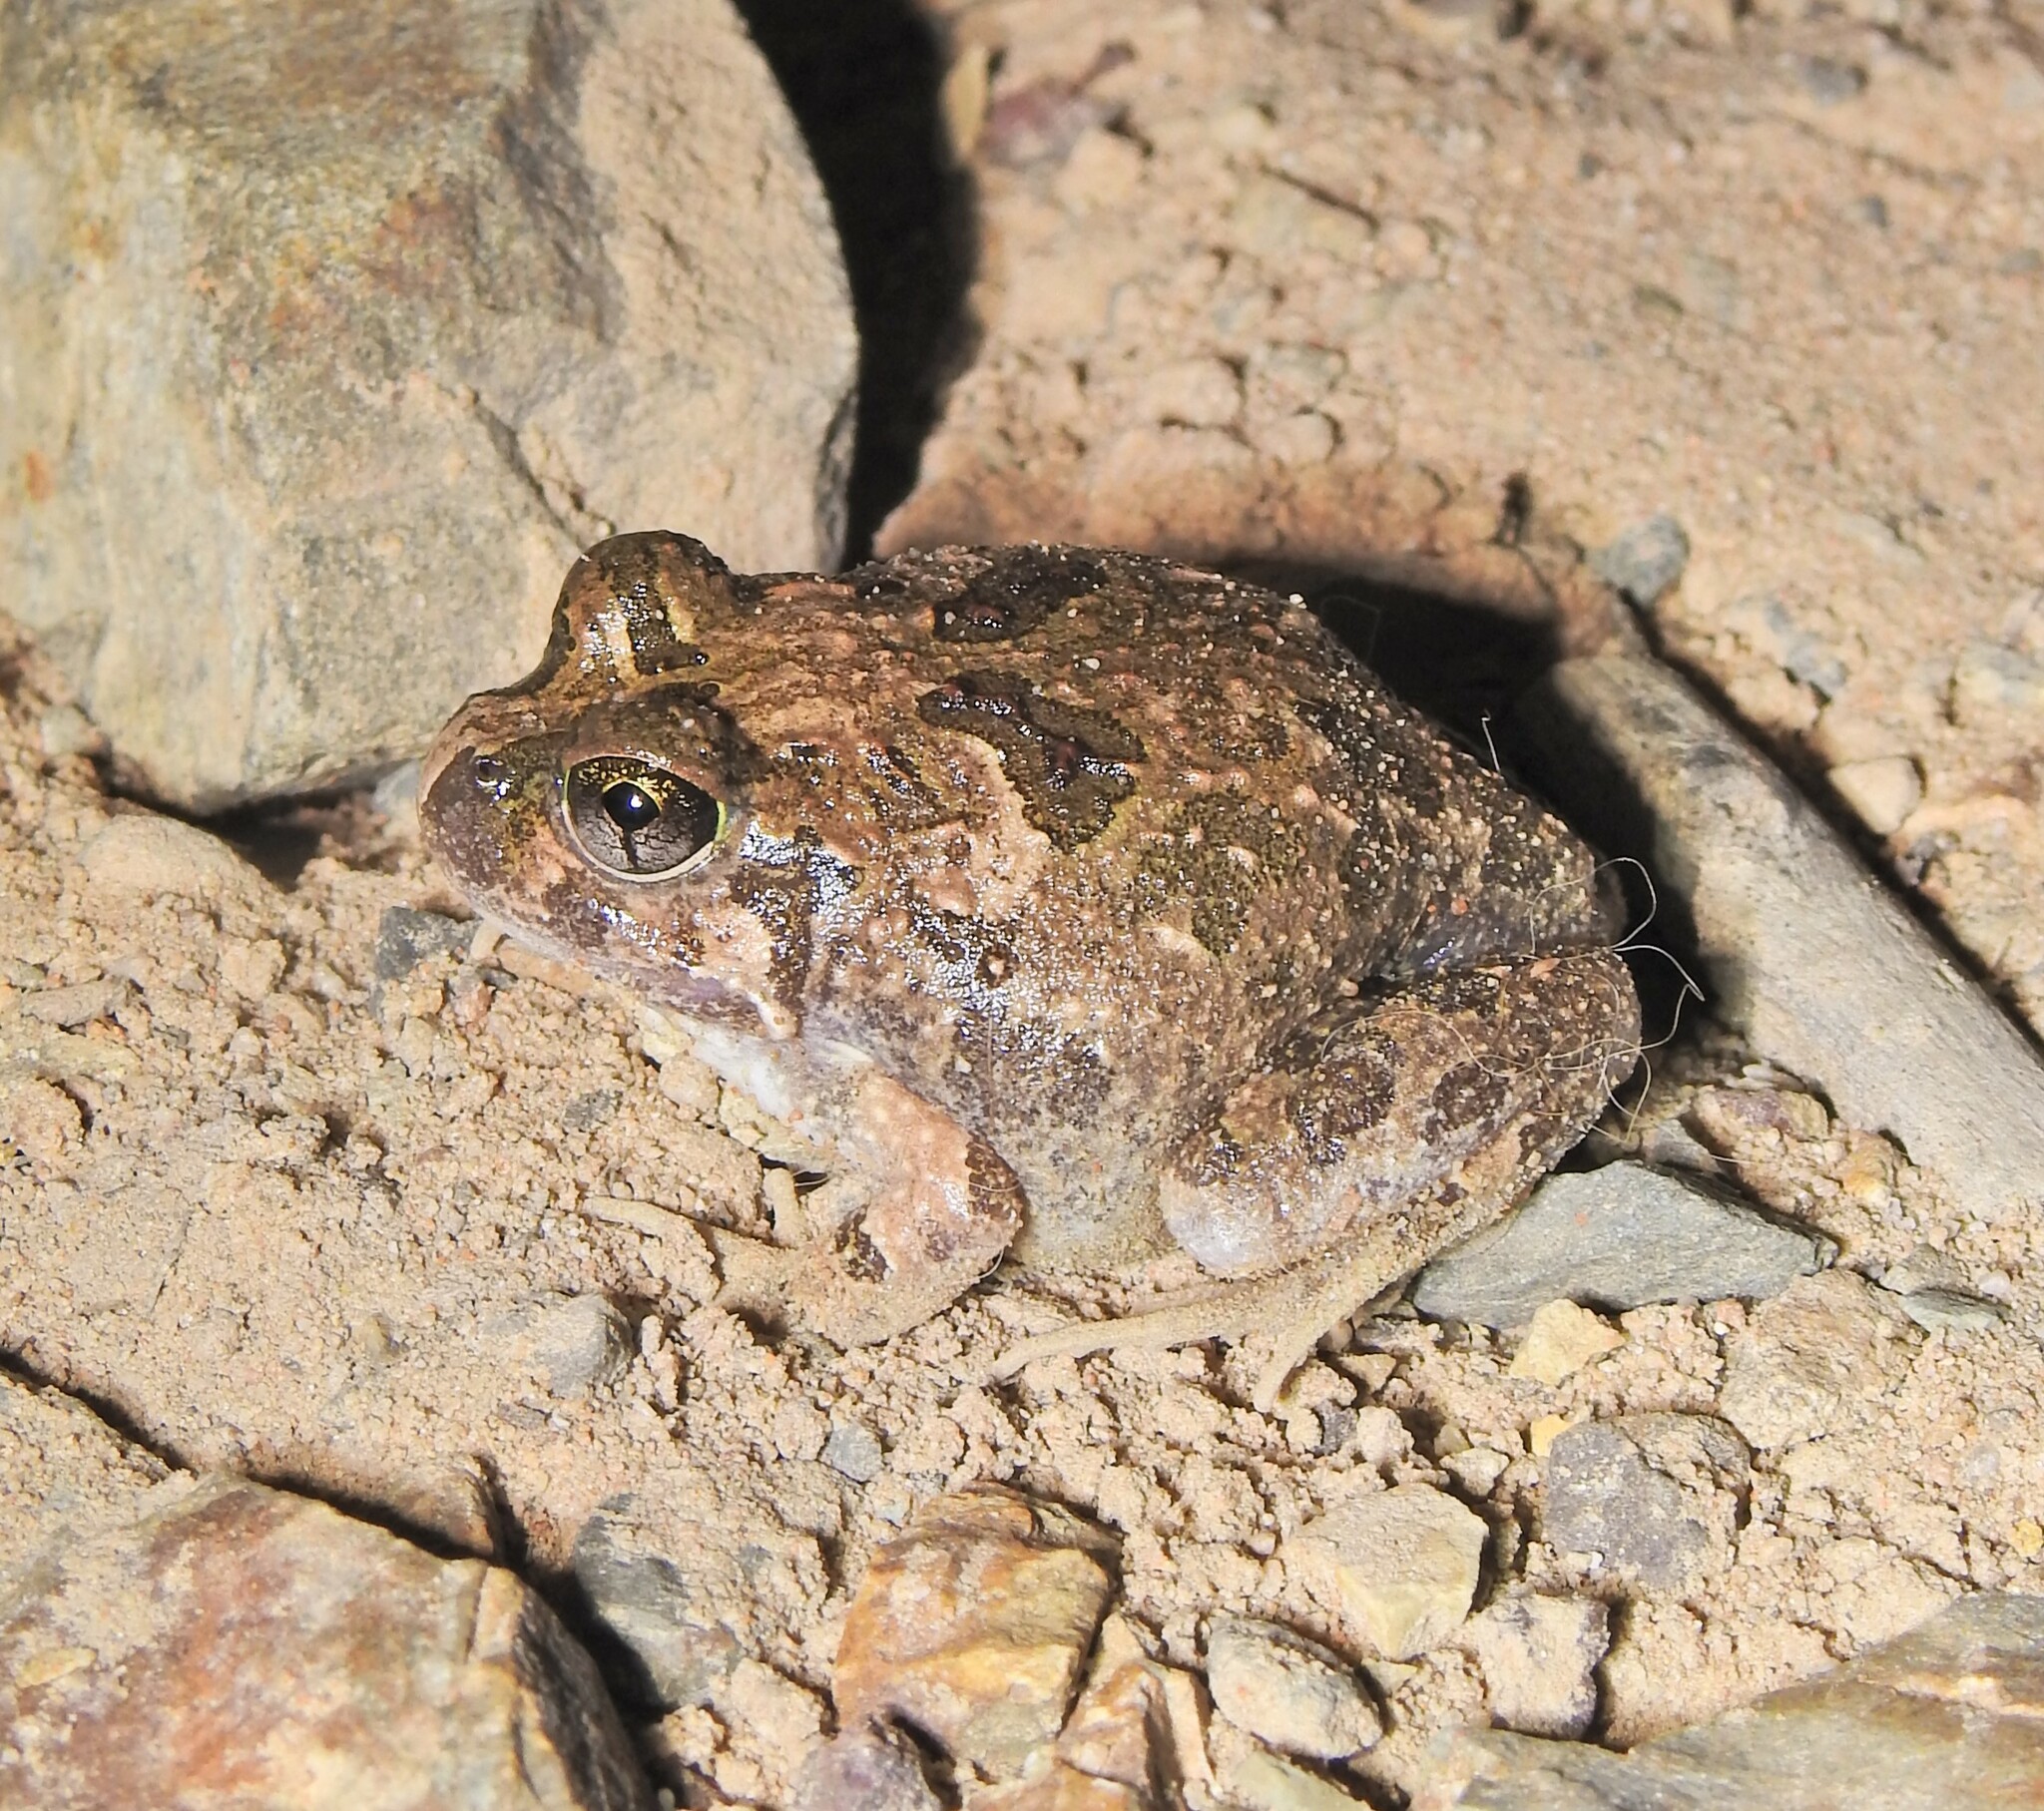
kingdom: Animalia
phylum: Chordata
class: Amphibia
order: Anura
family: Limnodynastidae
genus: Platyplectrum
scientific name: Platyplectrum ornatum
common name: Ornate burrowing frog
